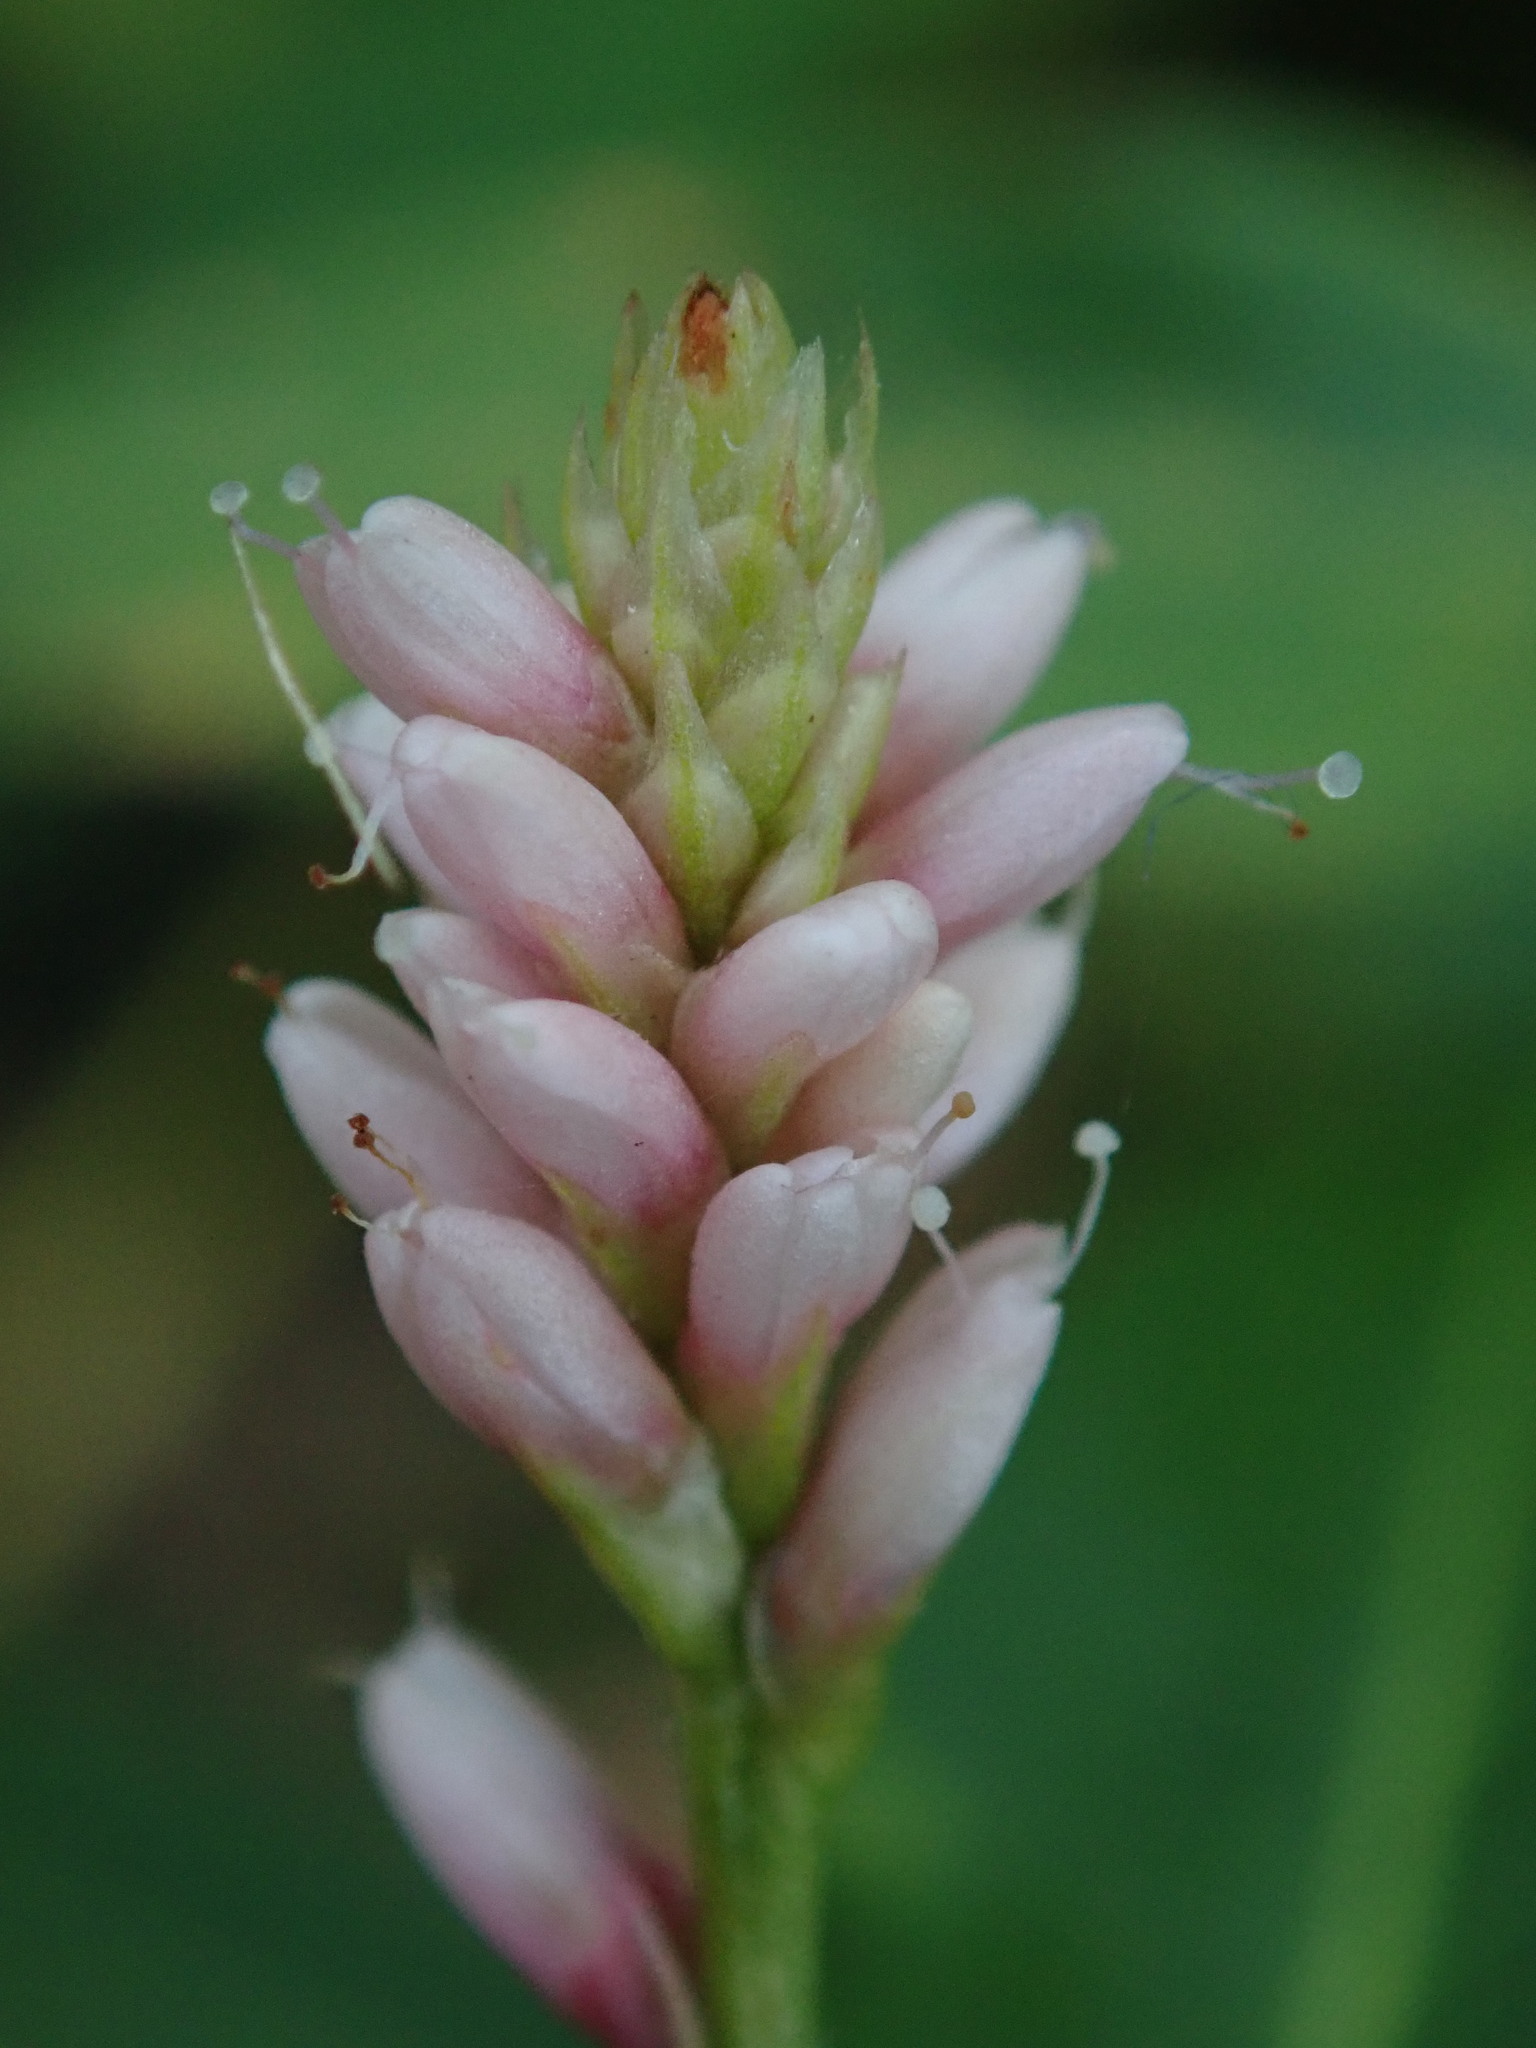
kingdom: Plantae
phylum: Tracheophyta
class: Magnoliopsida
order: Caryophyllales
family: Polygonaceae
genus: Persicaria
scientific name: Persicaria amphibia
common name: Amphibious bistort
